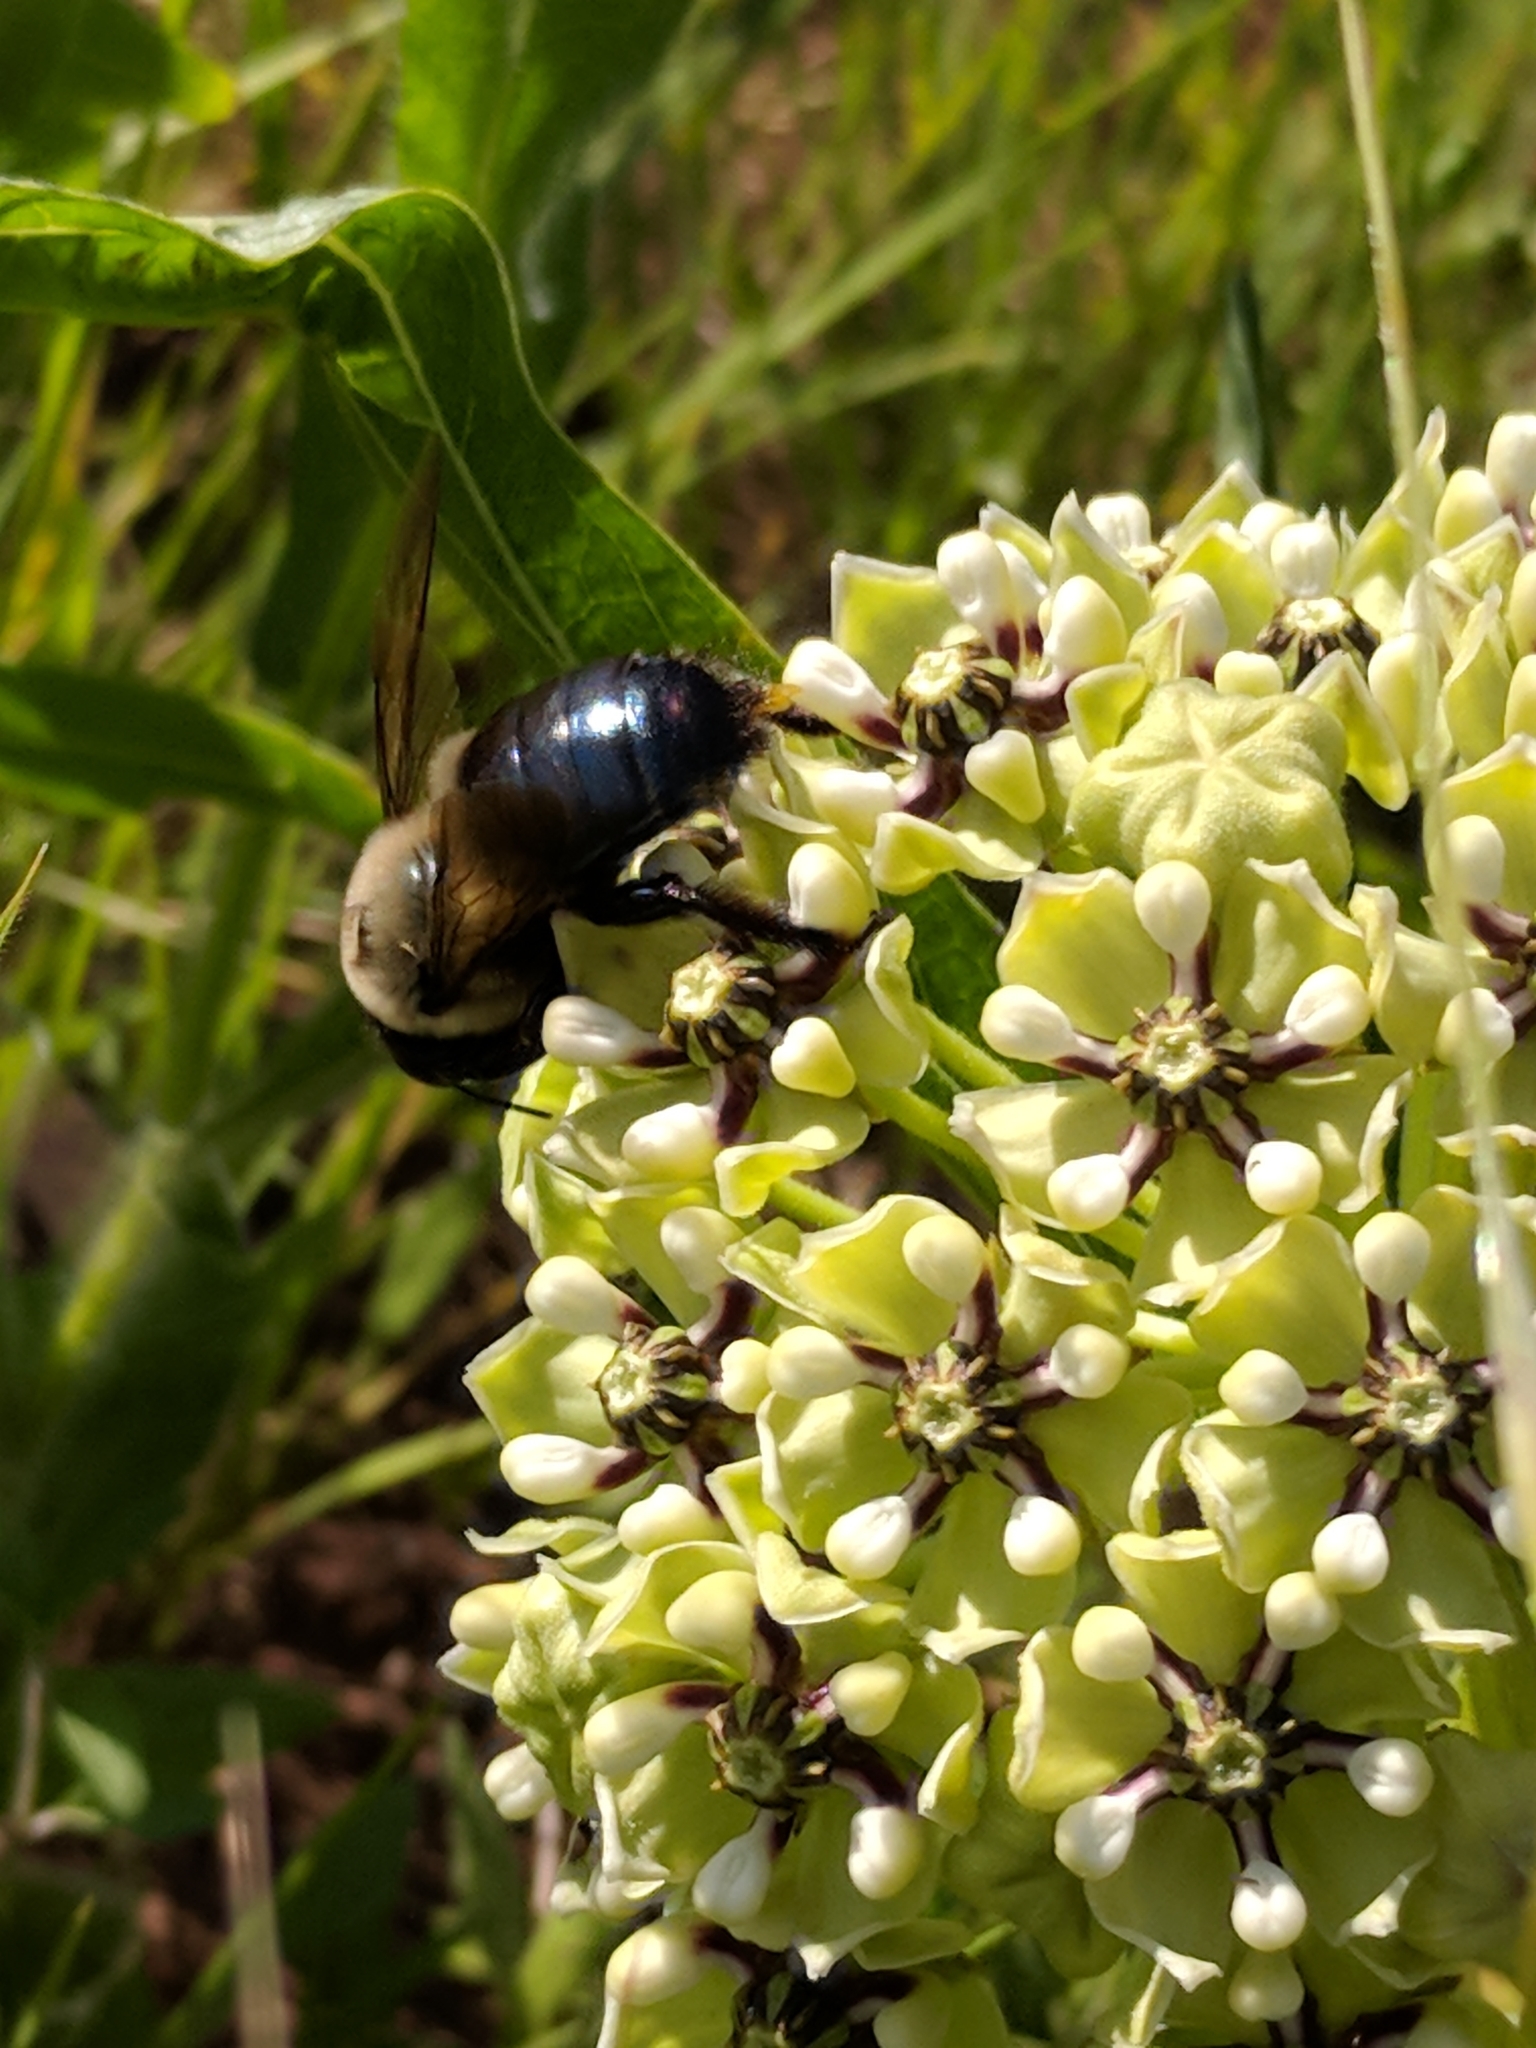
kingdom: Animalia
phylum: Arthropoda
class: Insecta
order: Hymenoptera
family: Apidae
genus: Xylocopa
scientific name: Xylocopa virginica
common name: Carpenter bee
